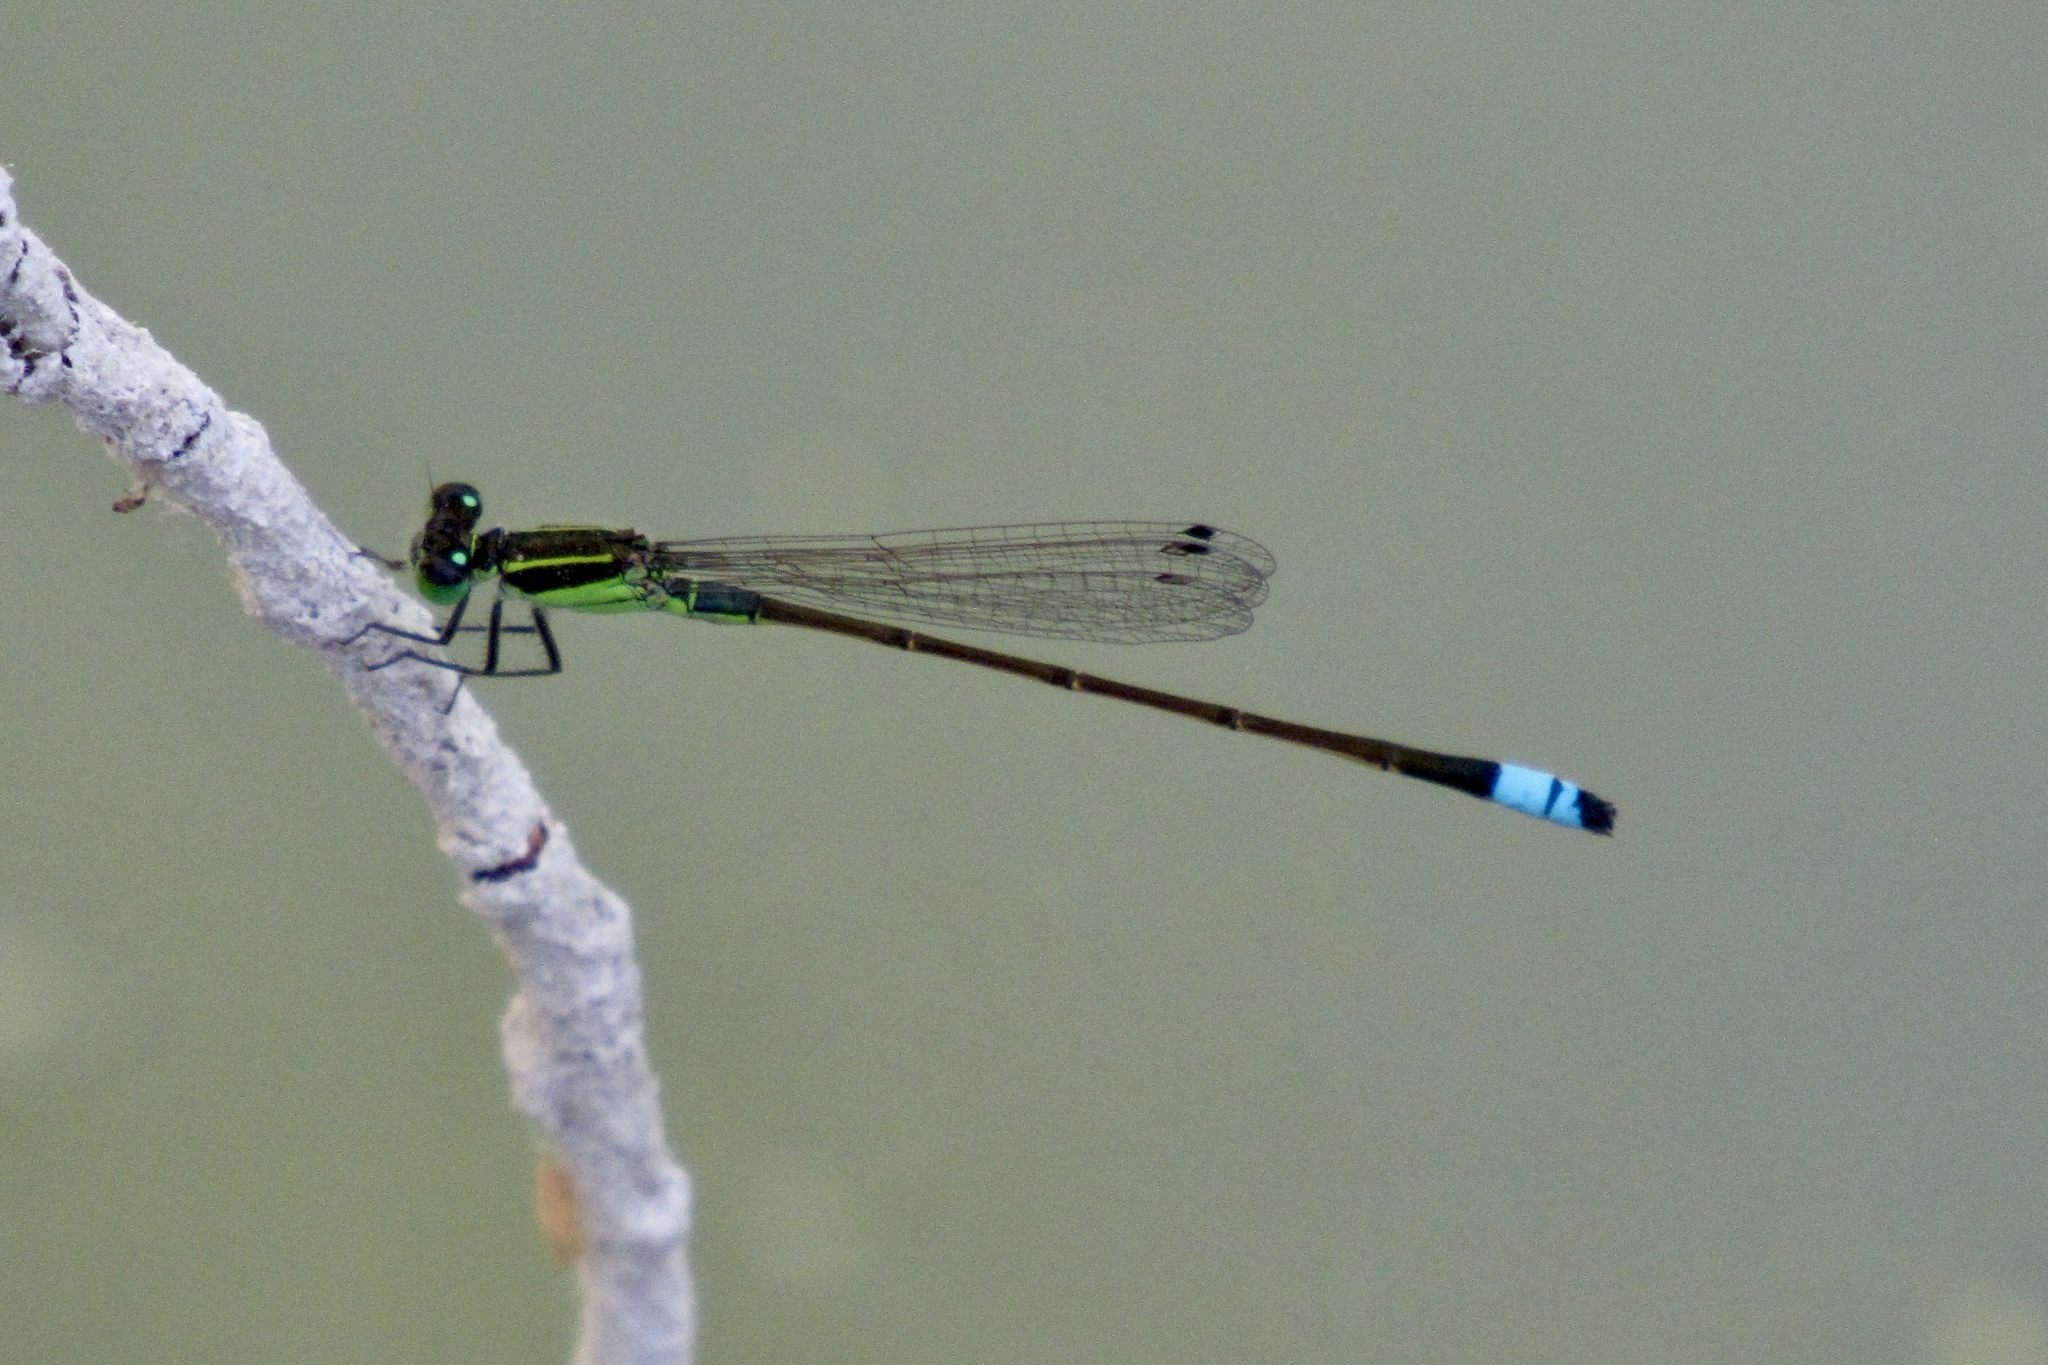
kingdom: Animalia
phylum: Arthropoda
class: Insecta
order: Odonata
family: Coenagrionidae
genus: Ischnura
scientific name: Ischnura ramburii
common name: Rambur's forktail
